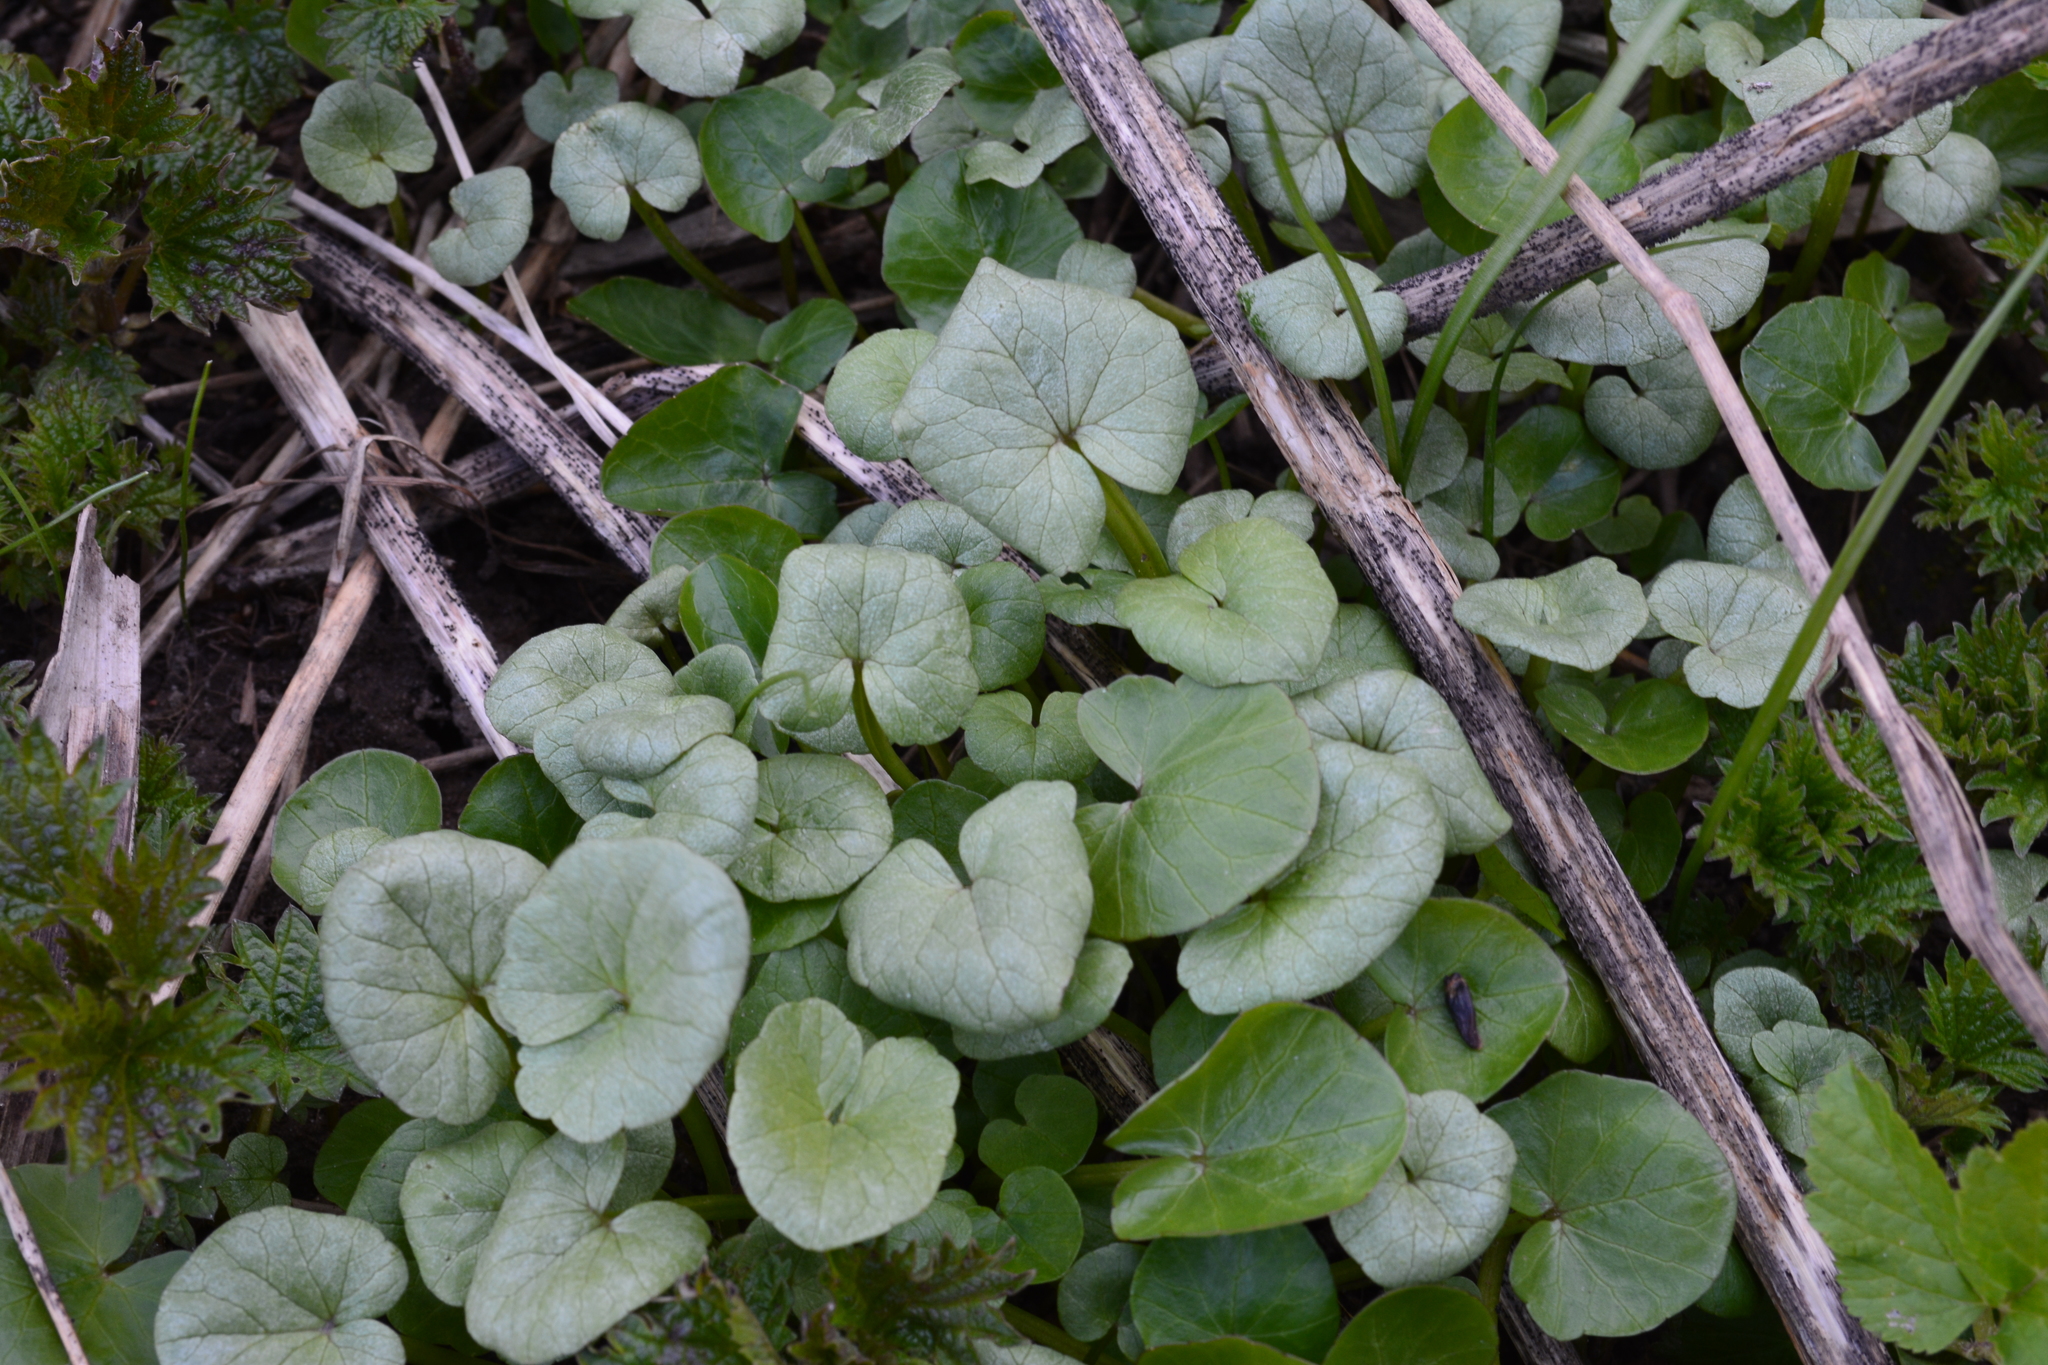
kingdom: Plantae
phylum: Tracheophyta
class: Magnoliopsida
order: Ranunculales
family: Ranunculaceae
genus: Ficaria
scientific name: Ficaria verna
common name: Lesser celandine
